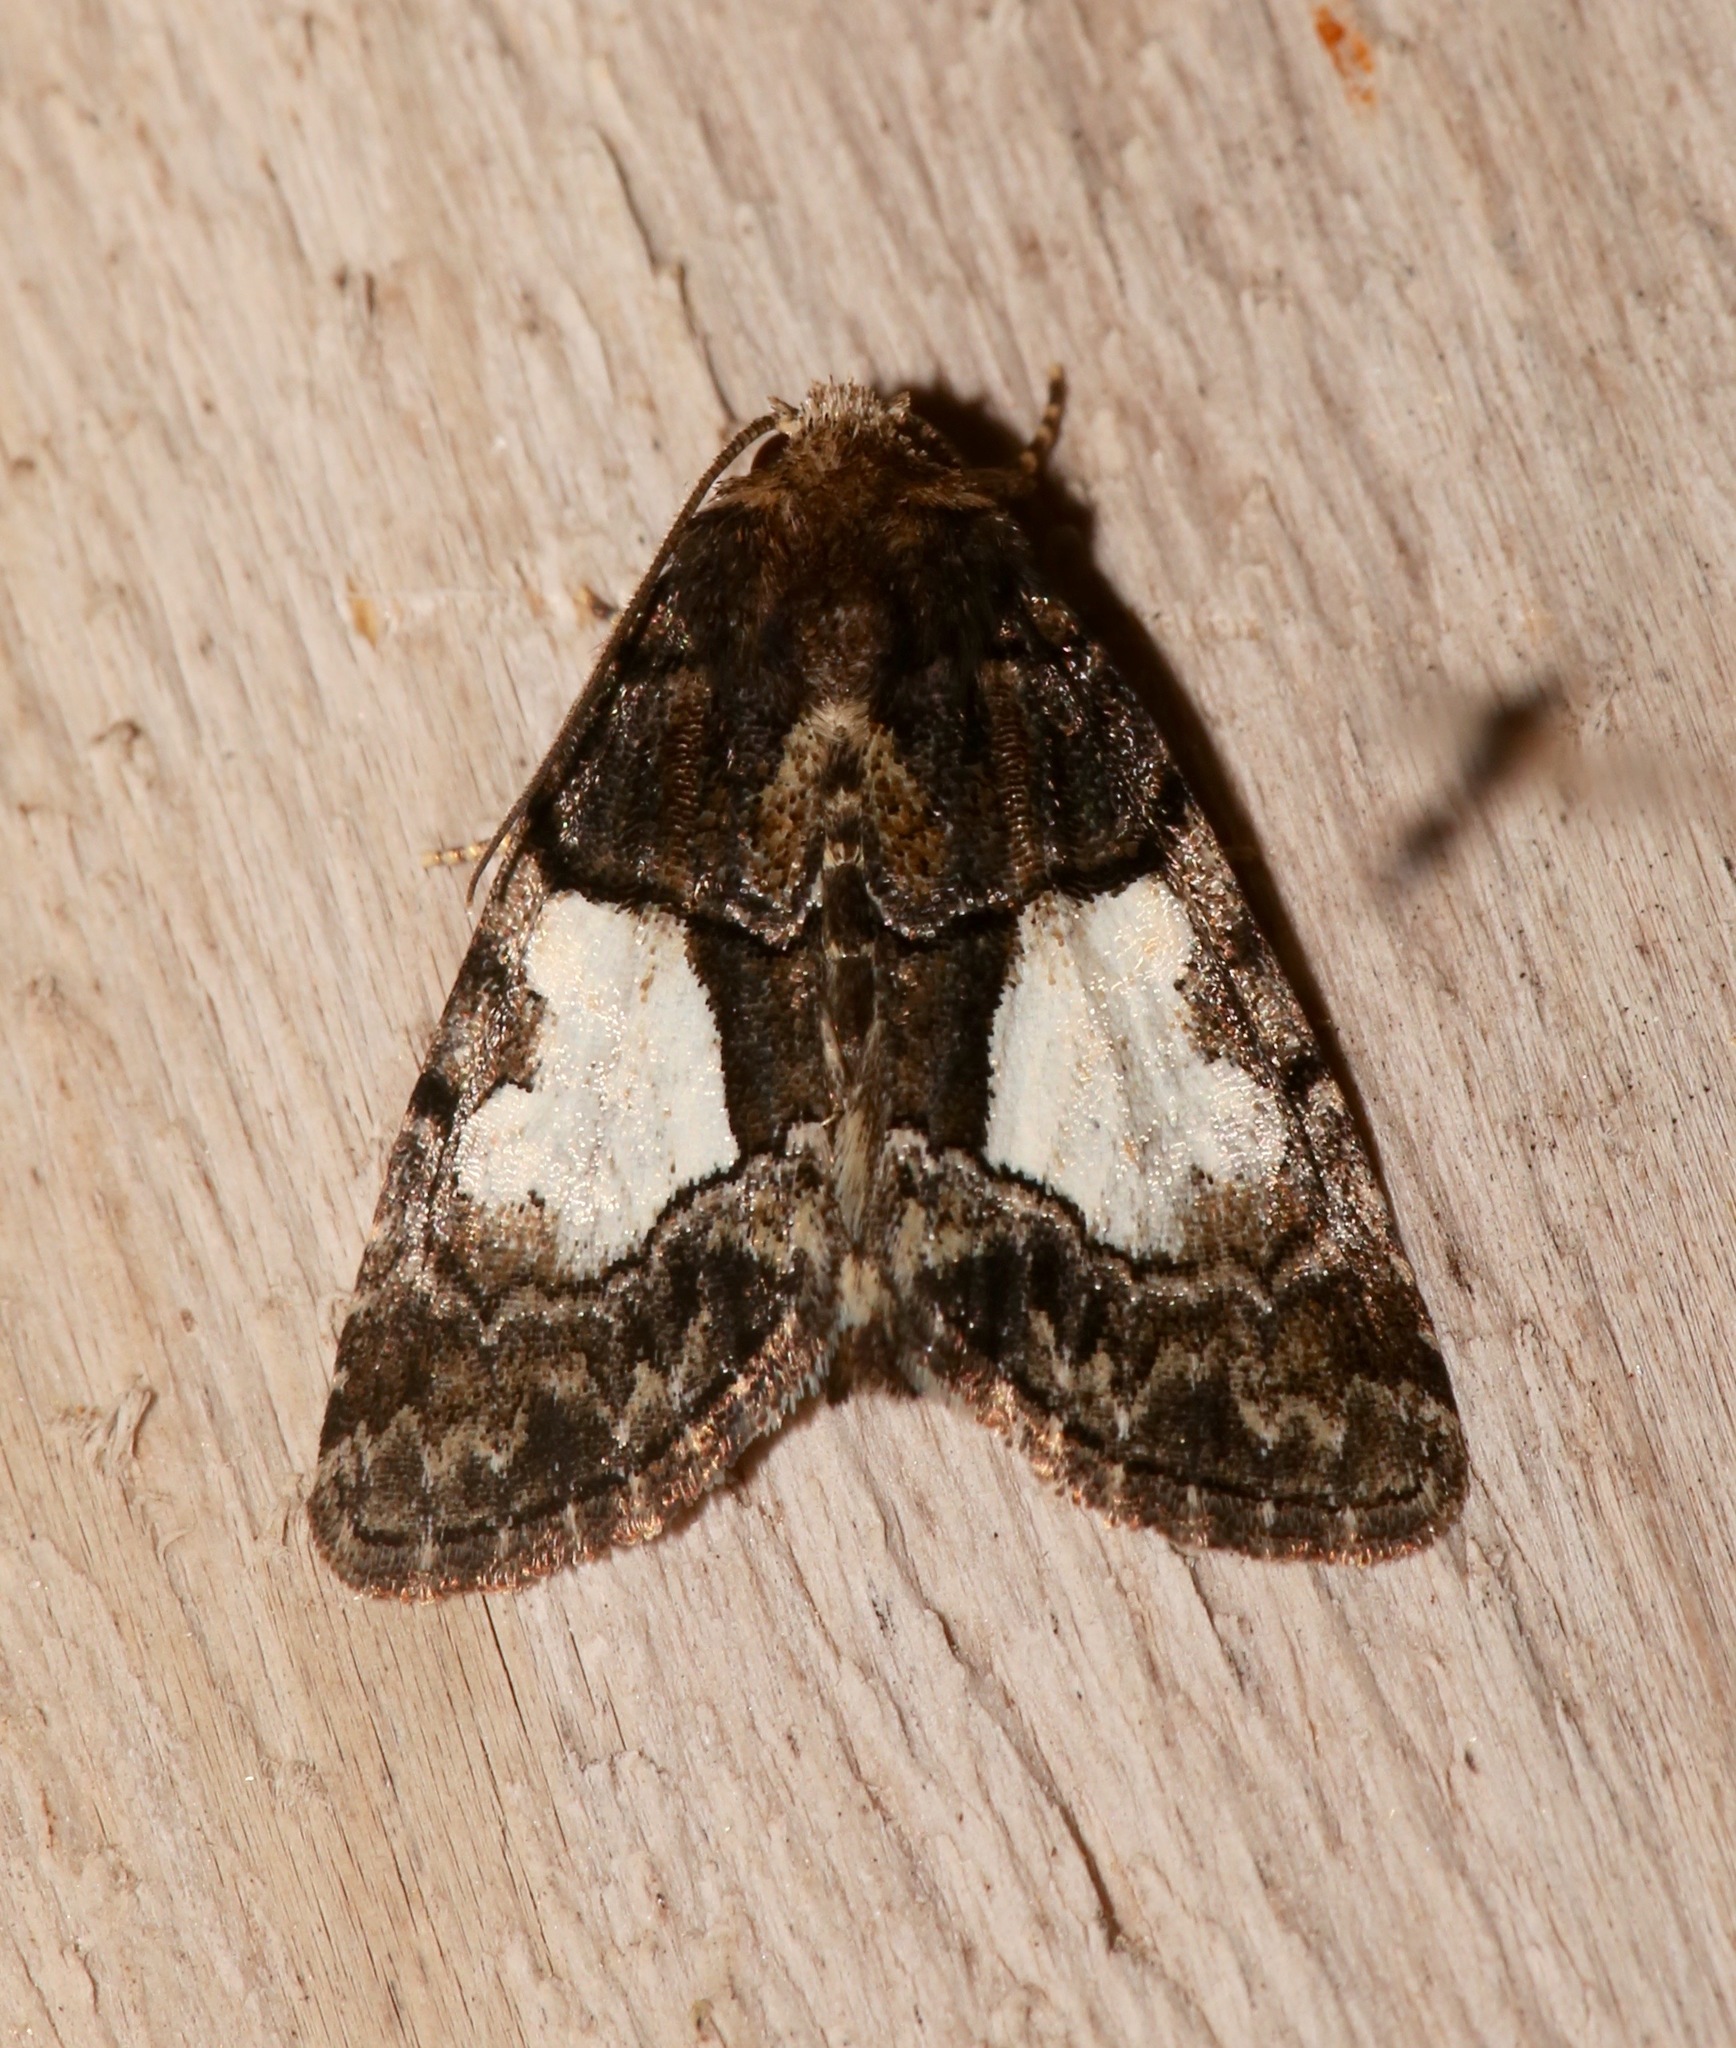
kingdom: Animalia
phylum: Arthropoda
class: Insecta
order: Lepidoptera
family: Noctuidae
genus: Chytonix
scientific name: Chytonix palliatricula
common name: Cloaked marvel
